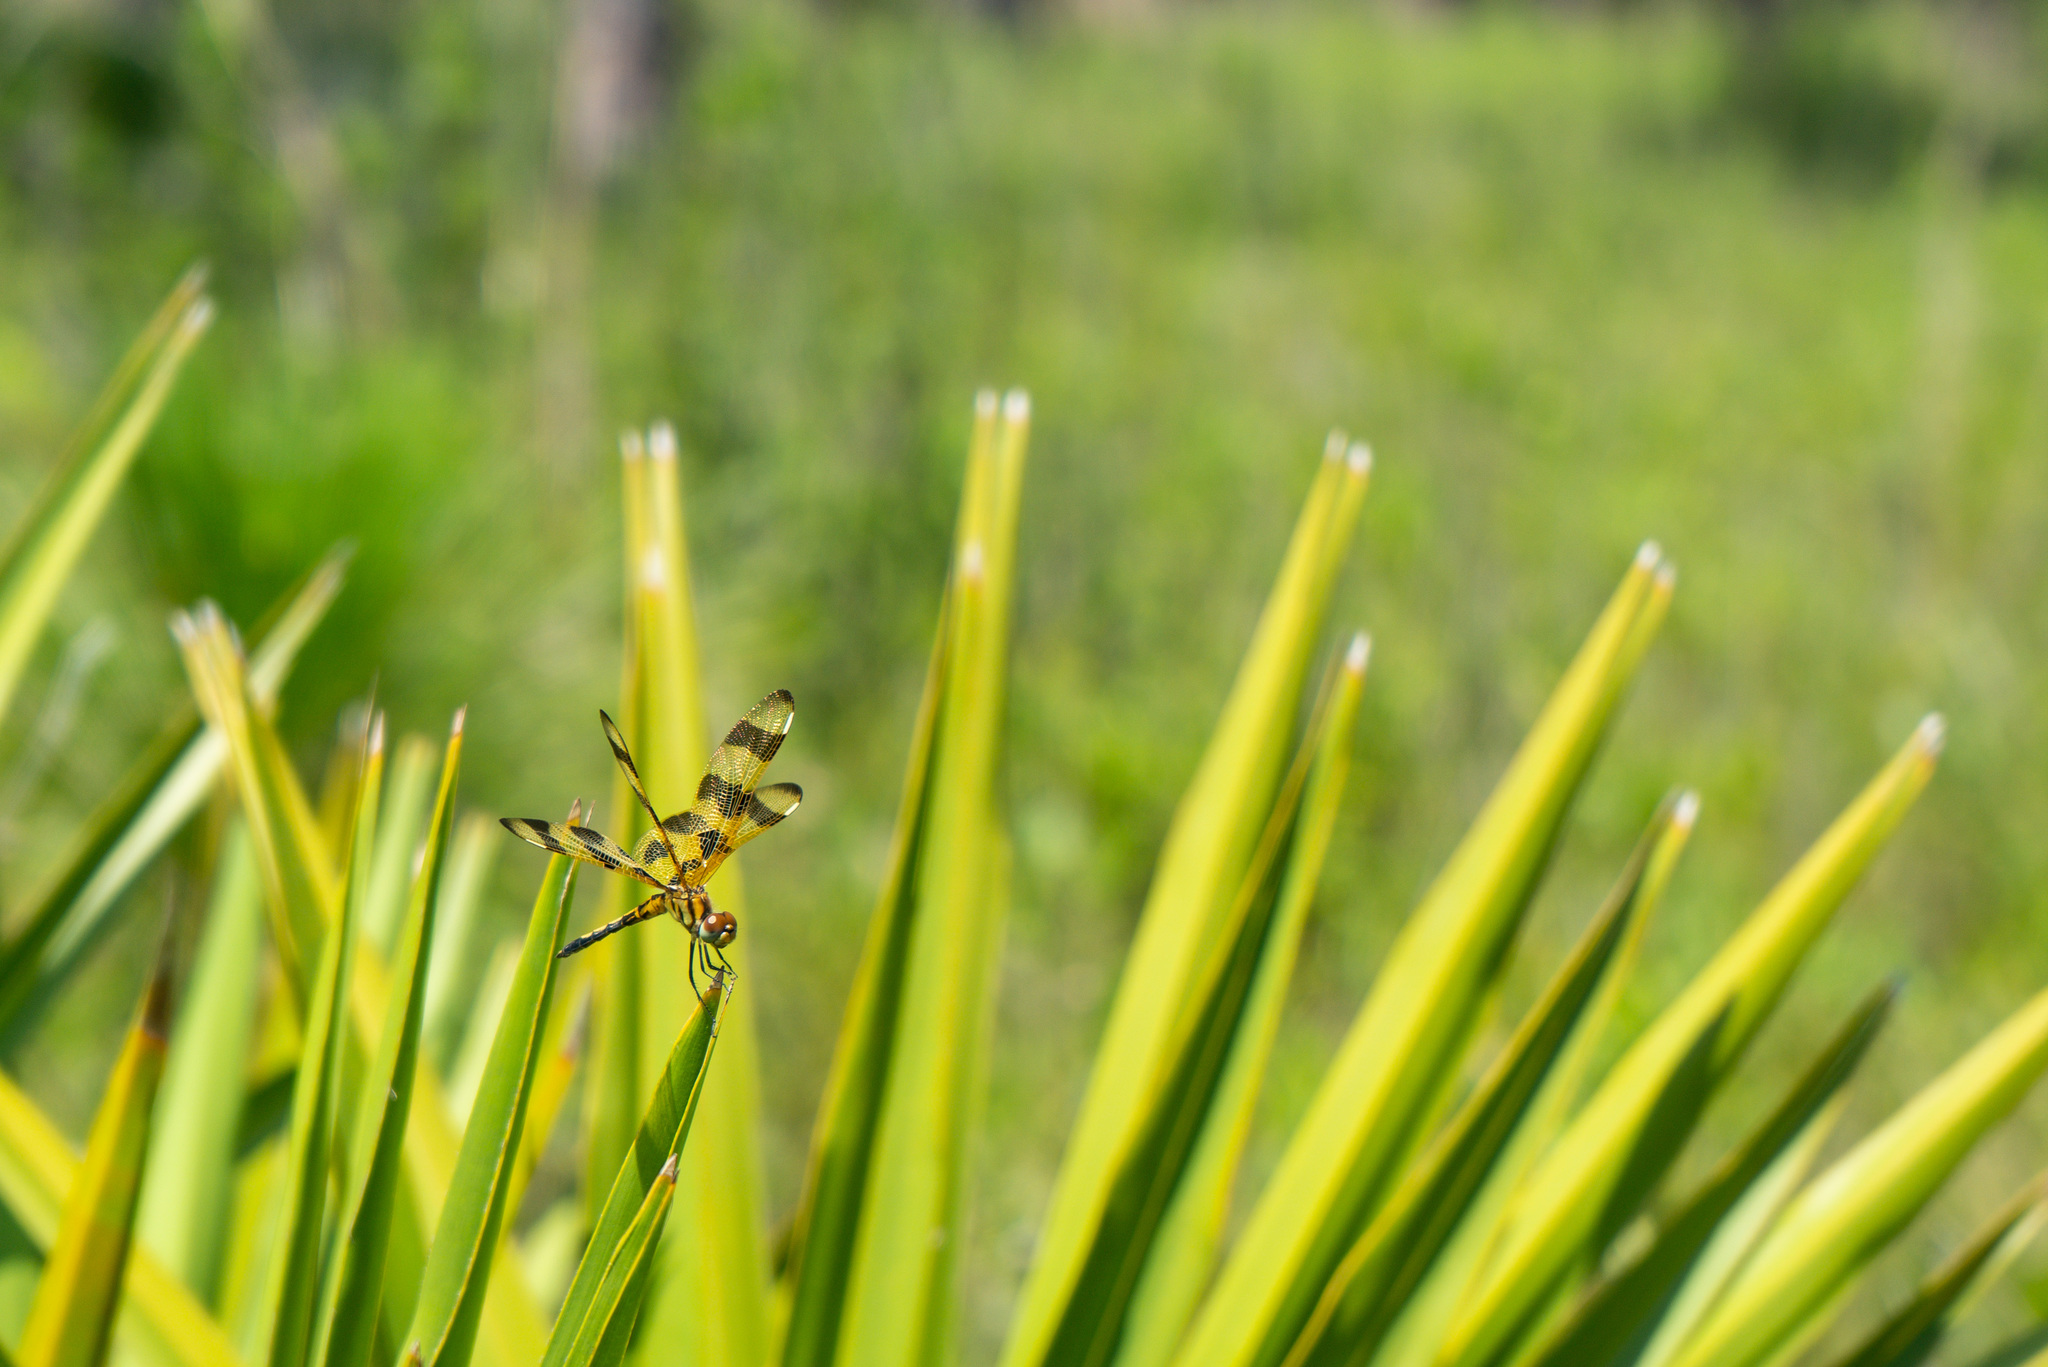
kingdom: Animalia
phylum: Arthropoda
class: Insecta
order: Odonata
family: Libellulidae
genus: Celithemis
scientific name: Celithemis eponina
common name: Halloween pennant
